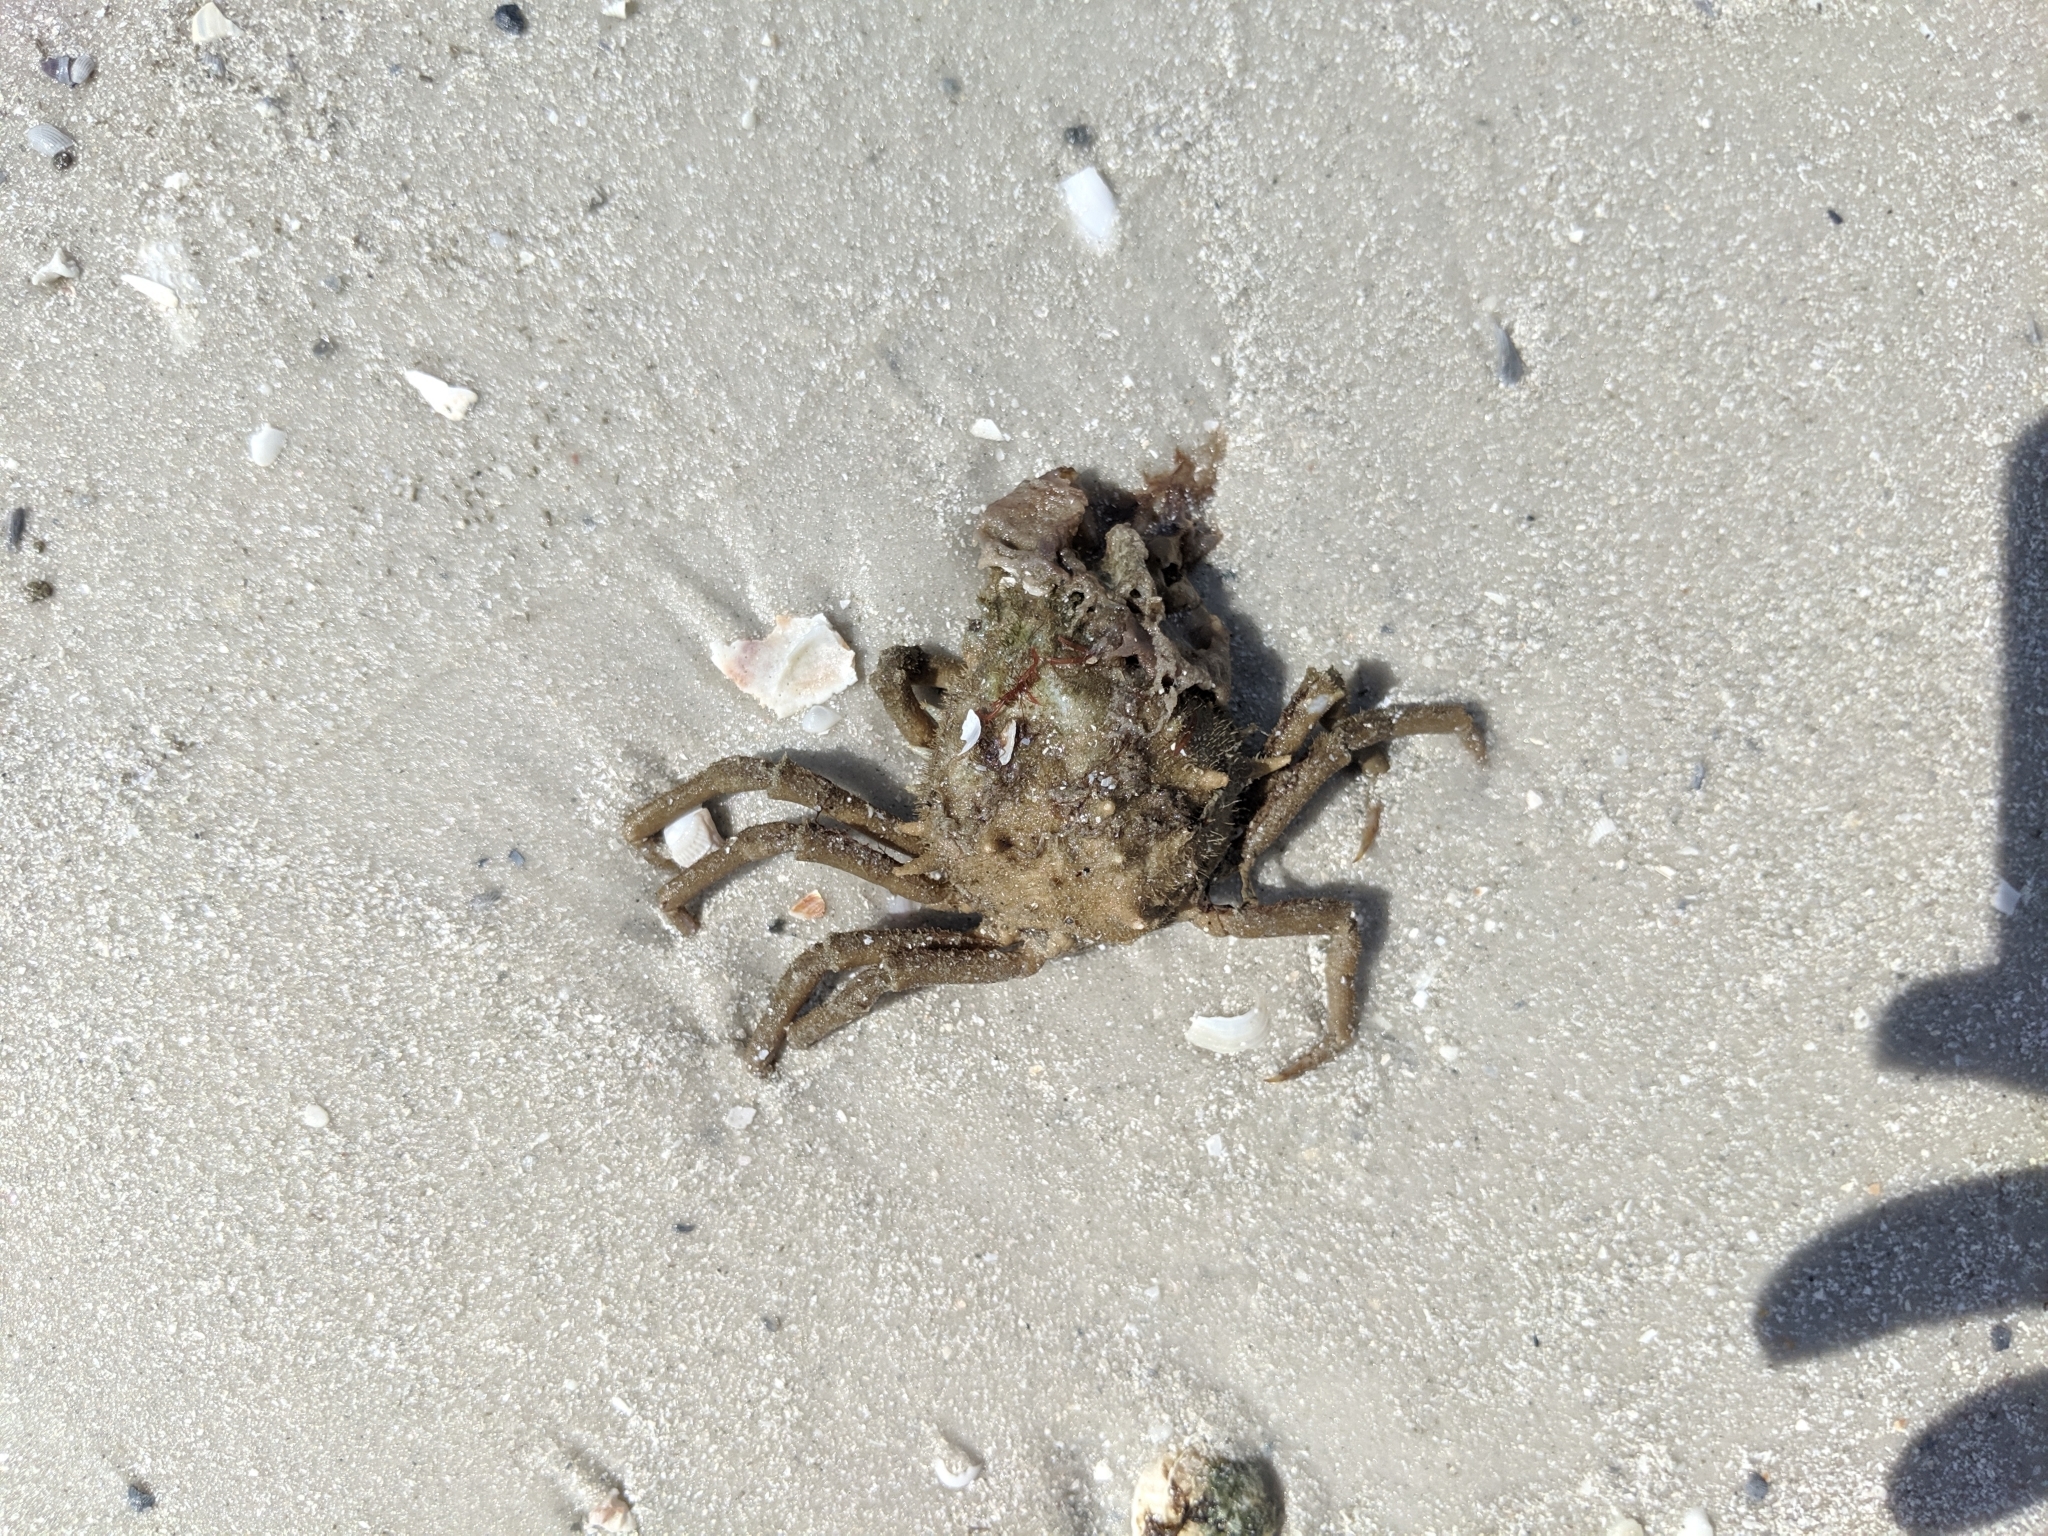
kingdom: Animalia
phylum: Arthropoda
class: Malacostraca
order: Decapoda
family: Epialtidae
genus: Libinia
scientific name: Libinia emarginata
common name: Common spider crab
